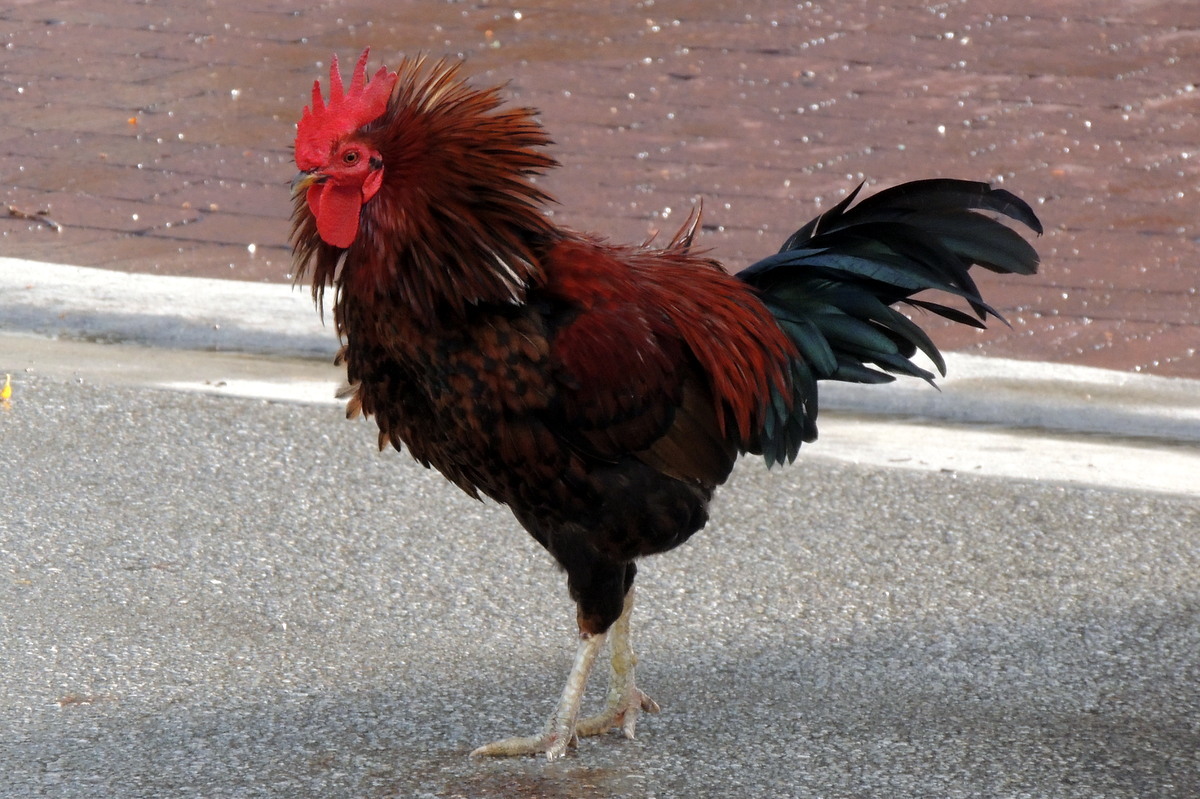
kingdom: Animalia
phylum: Chordata
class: Aves
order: Galliformes
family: Phasianidae
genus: Gallus
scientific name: Gallus gallus
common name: Red junglefowl
